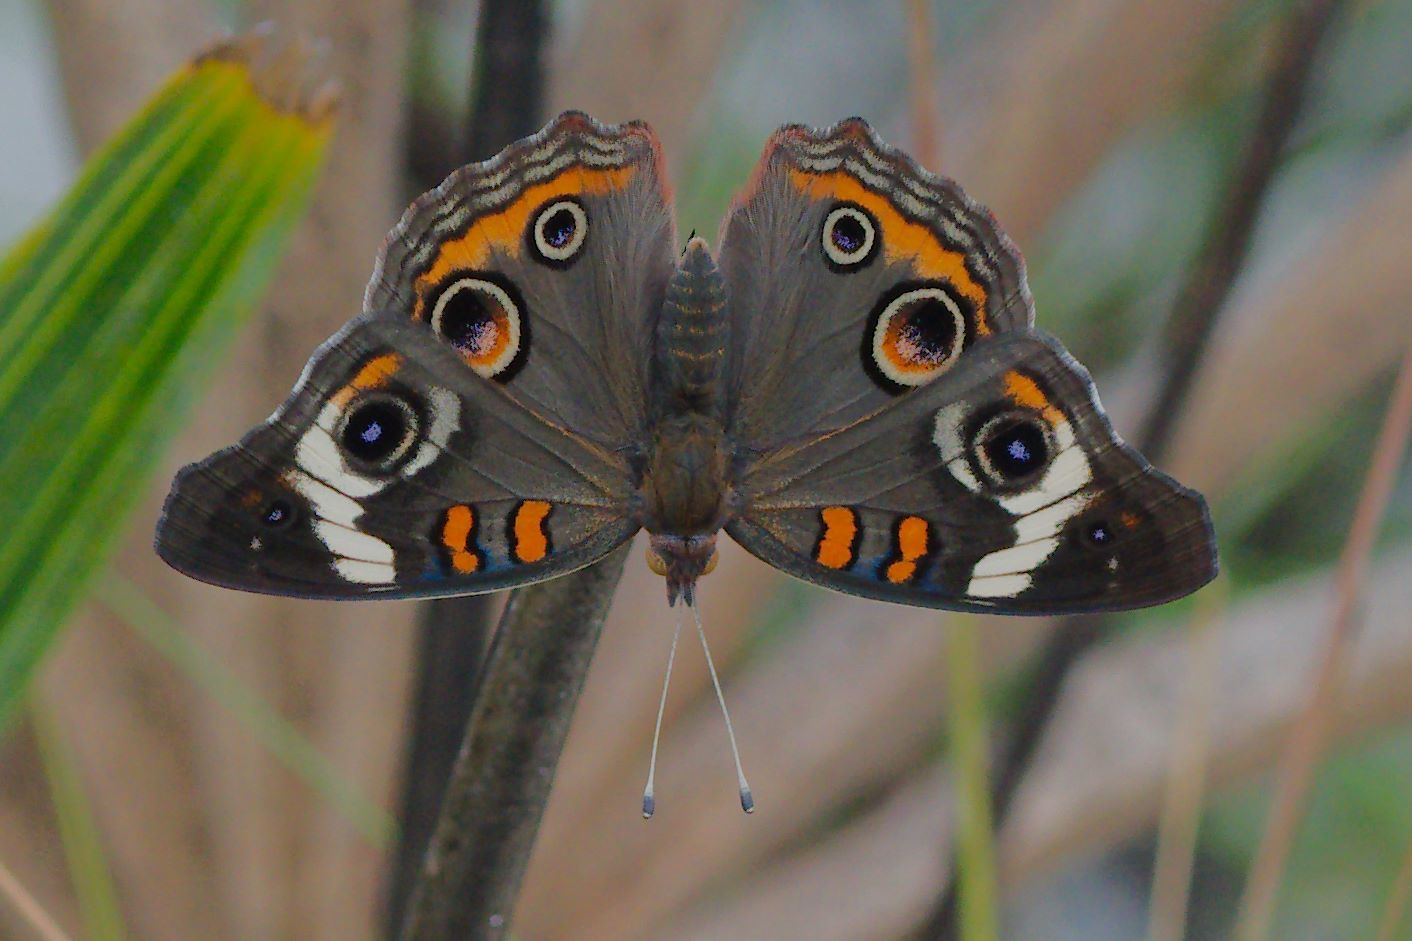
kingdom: Animalia
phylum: Arthropoda
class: Insecta
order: Lepidoptera
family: Nymphalidae
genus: Junonia
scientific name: Junonia coenia
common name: Common buckeye
